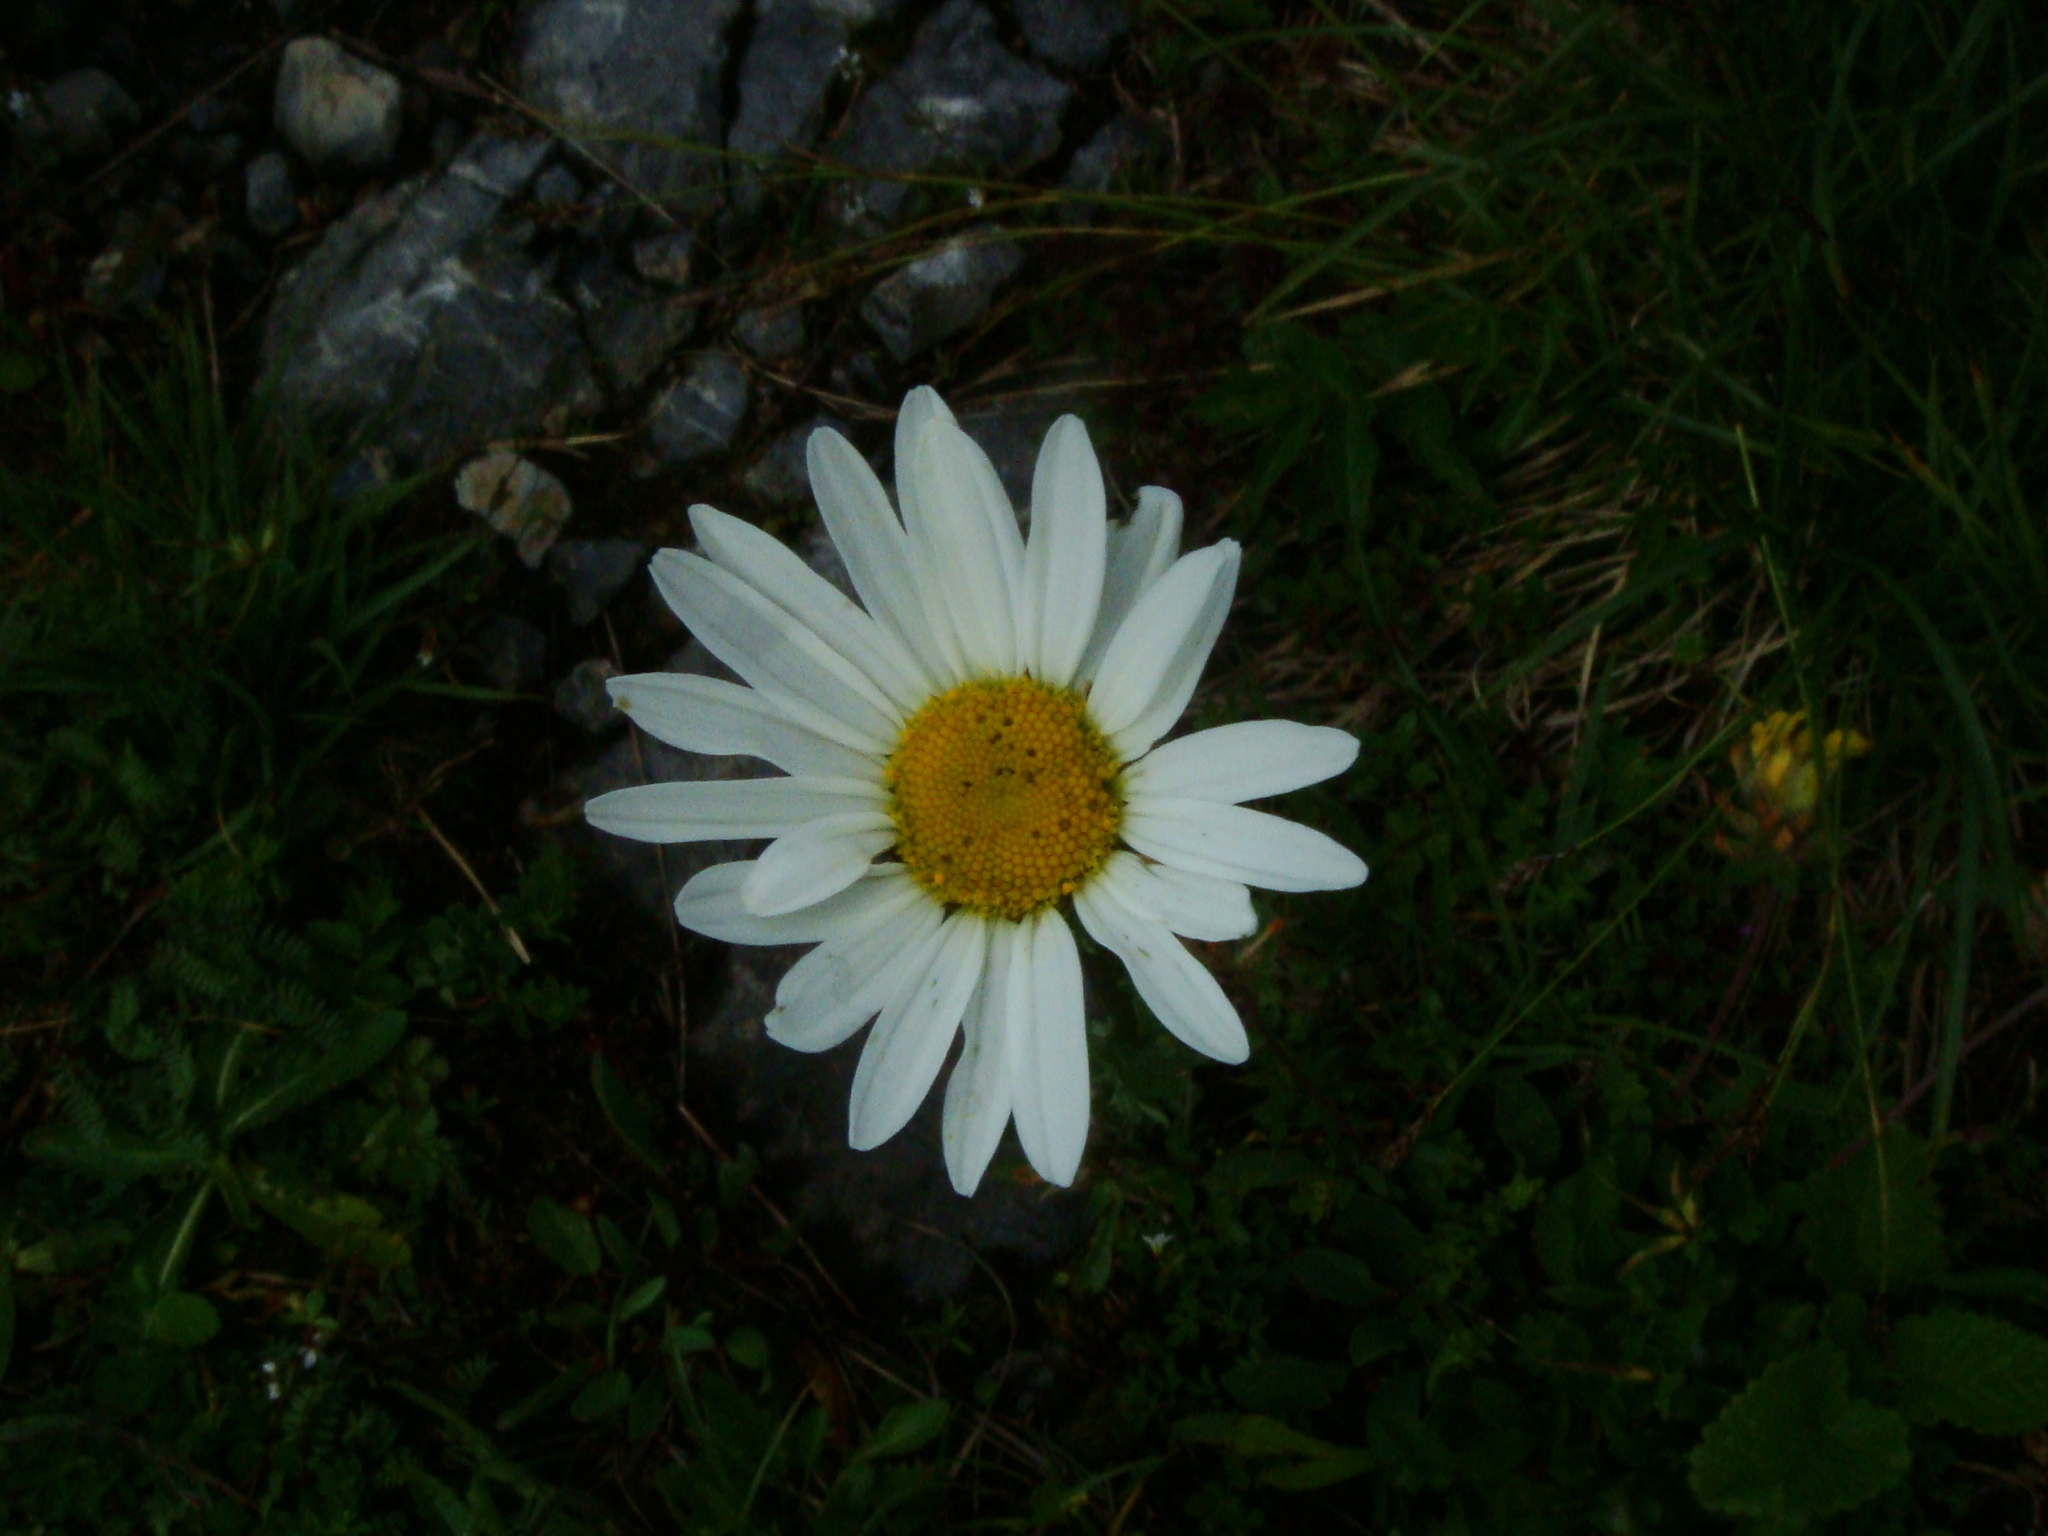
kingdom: Plantae
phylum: Tracheophyta
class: Magnoliopsida
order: Asterales
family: Asteraceae
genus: Leucanthemum
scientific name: Leucanthemum atratum
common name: Saw-leaved moon-daisy
